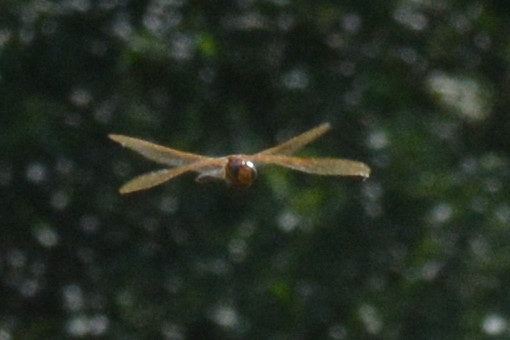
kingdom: Animalia
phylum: Arthropoda
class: Insecta
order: Odonata
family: Aeshnidae
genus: Aeshna
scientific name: Aeshna grandis
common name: Brown hawker
